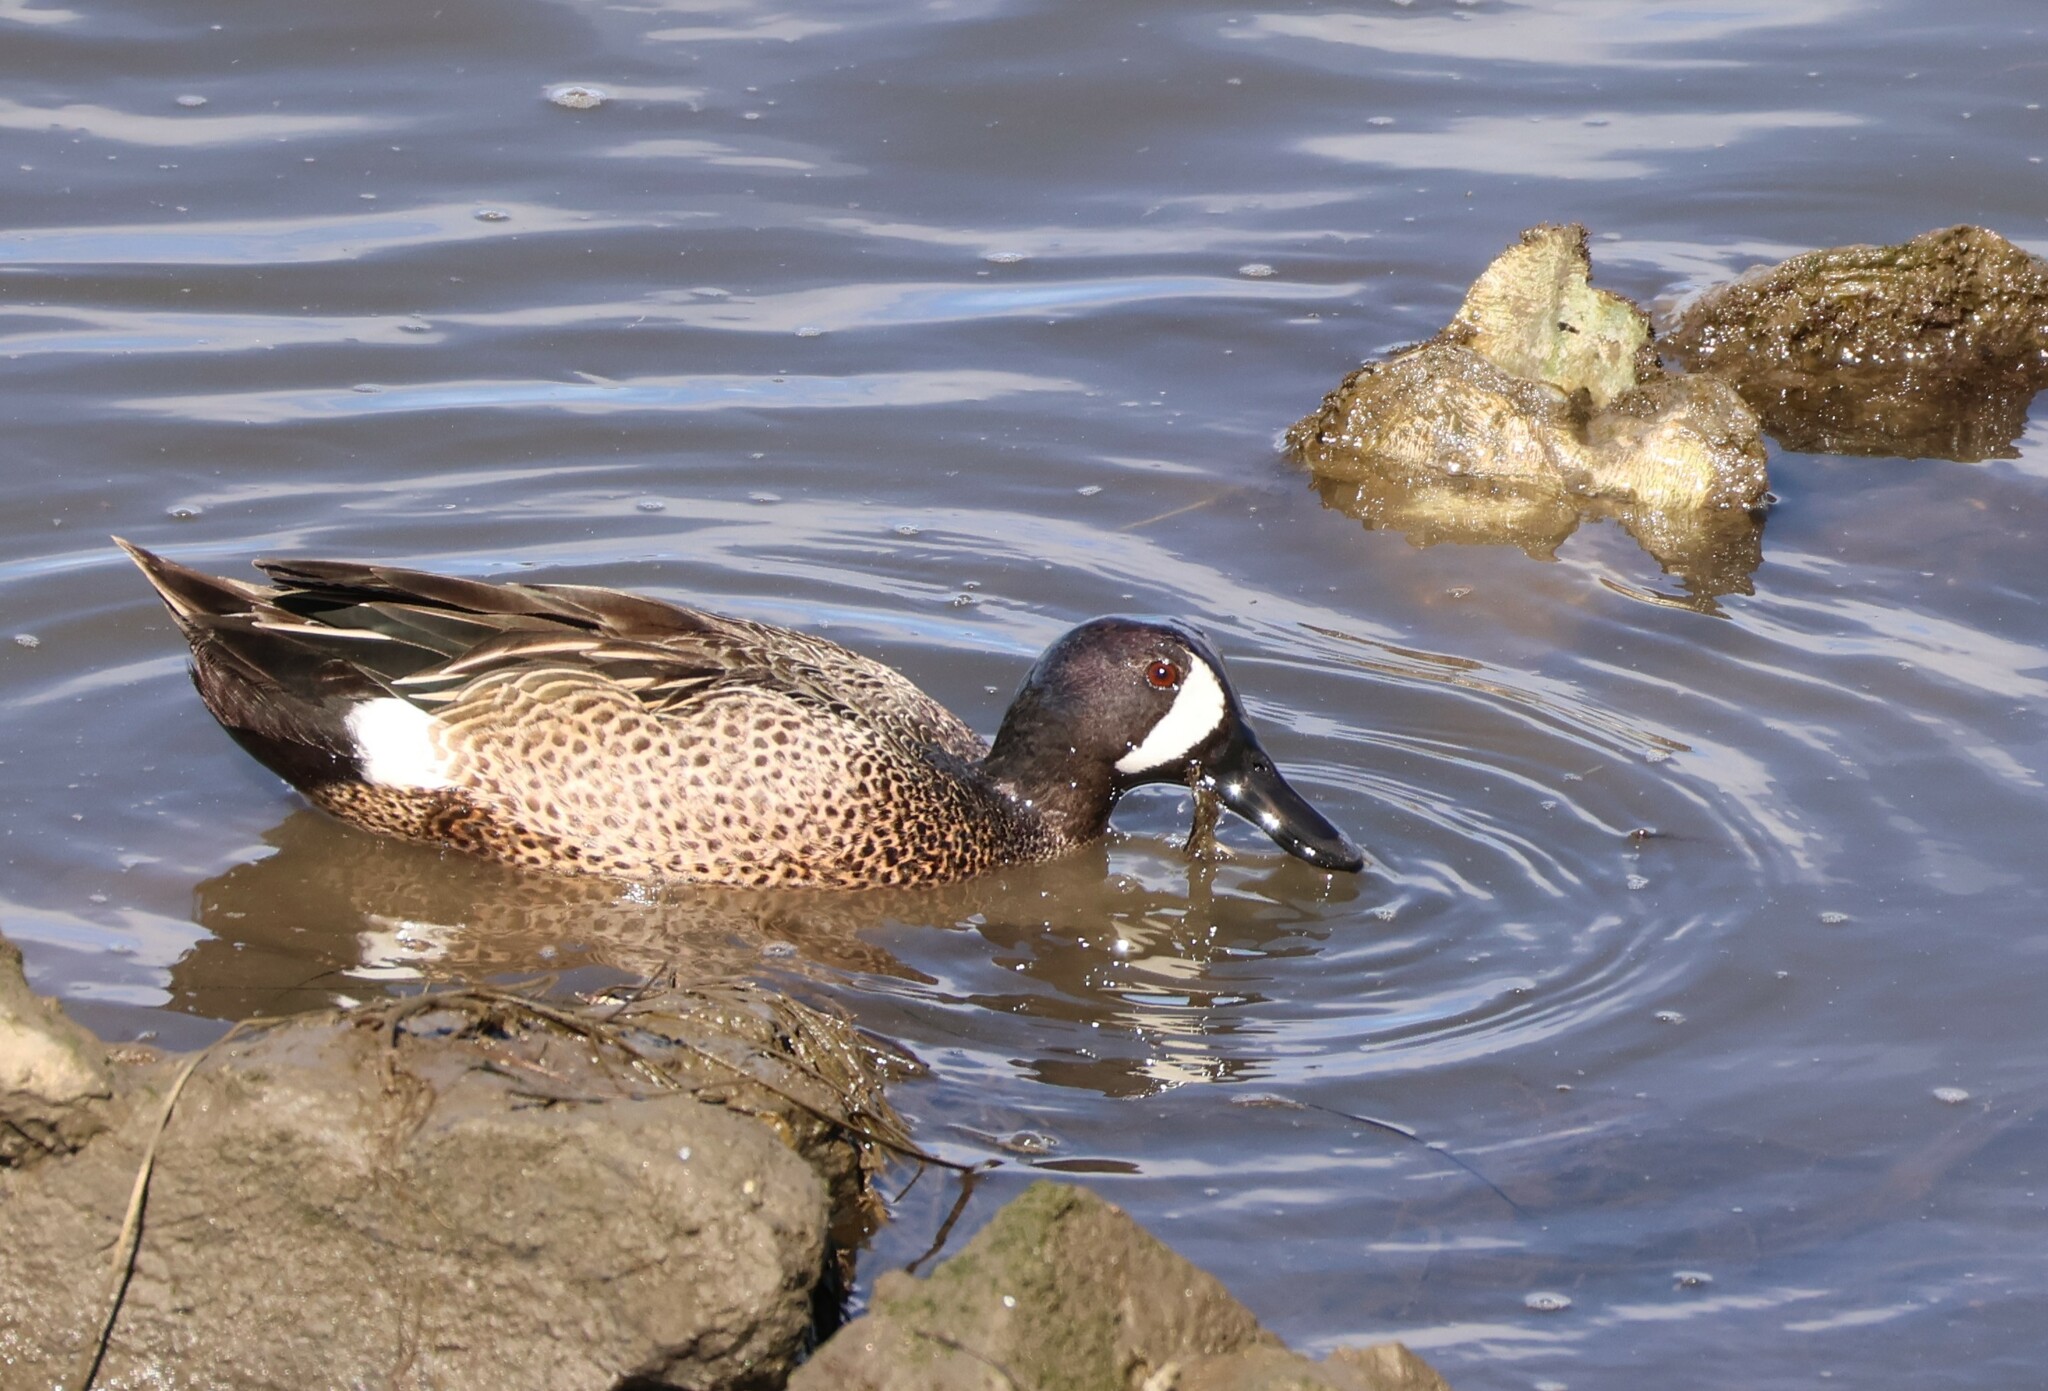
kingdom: Animalia
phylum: Chordata
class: Aves
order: Anseriformes
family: Anatidae
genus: Spatula
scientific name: Spatula discors
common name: Blue-winged teal
